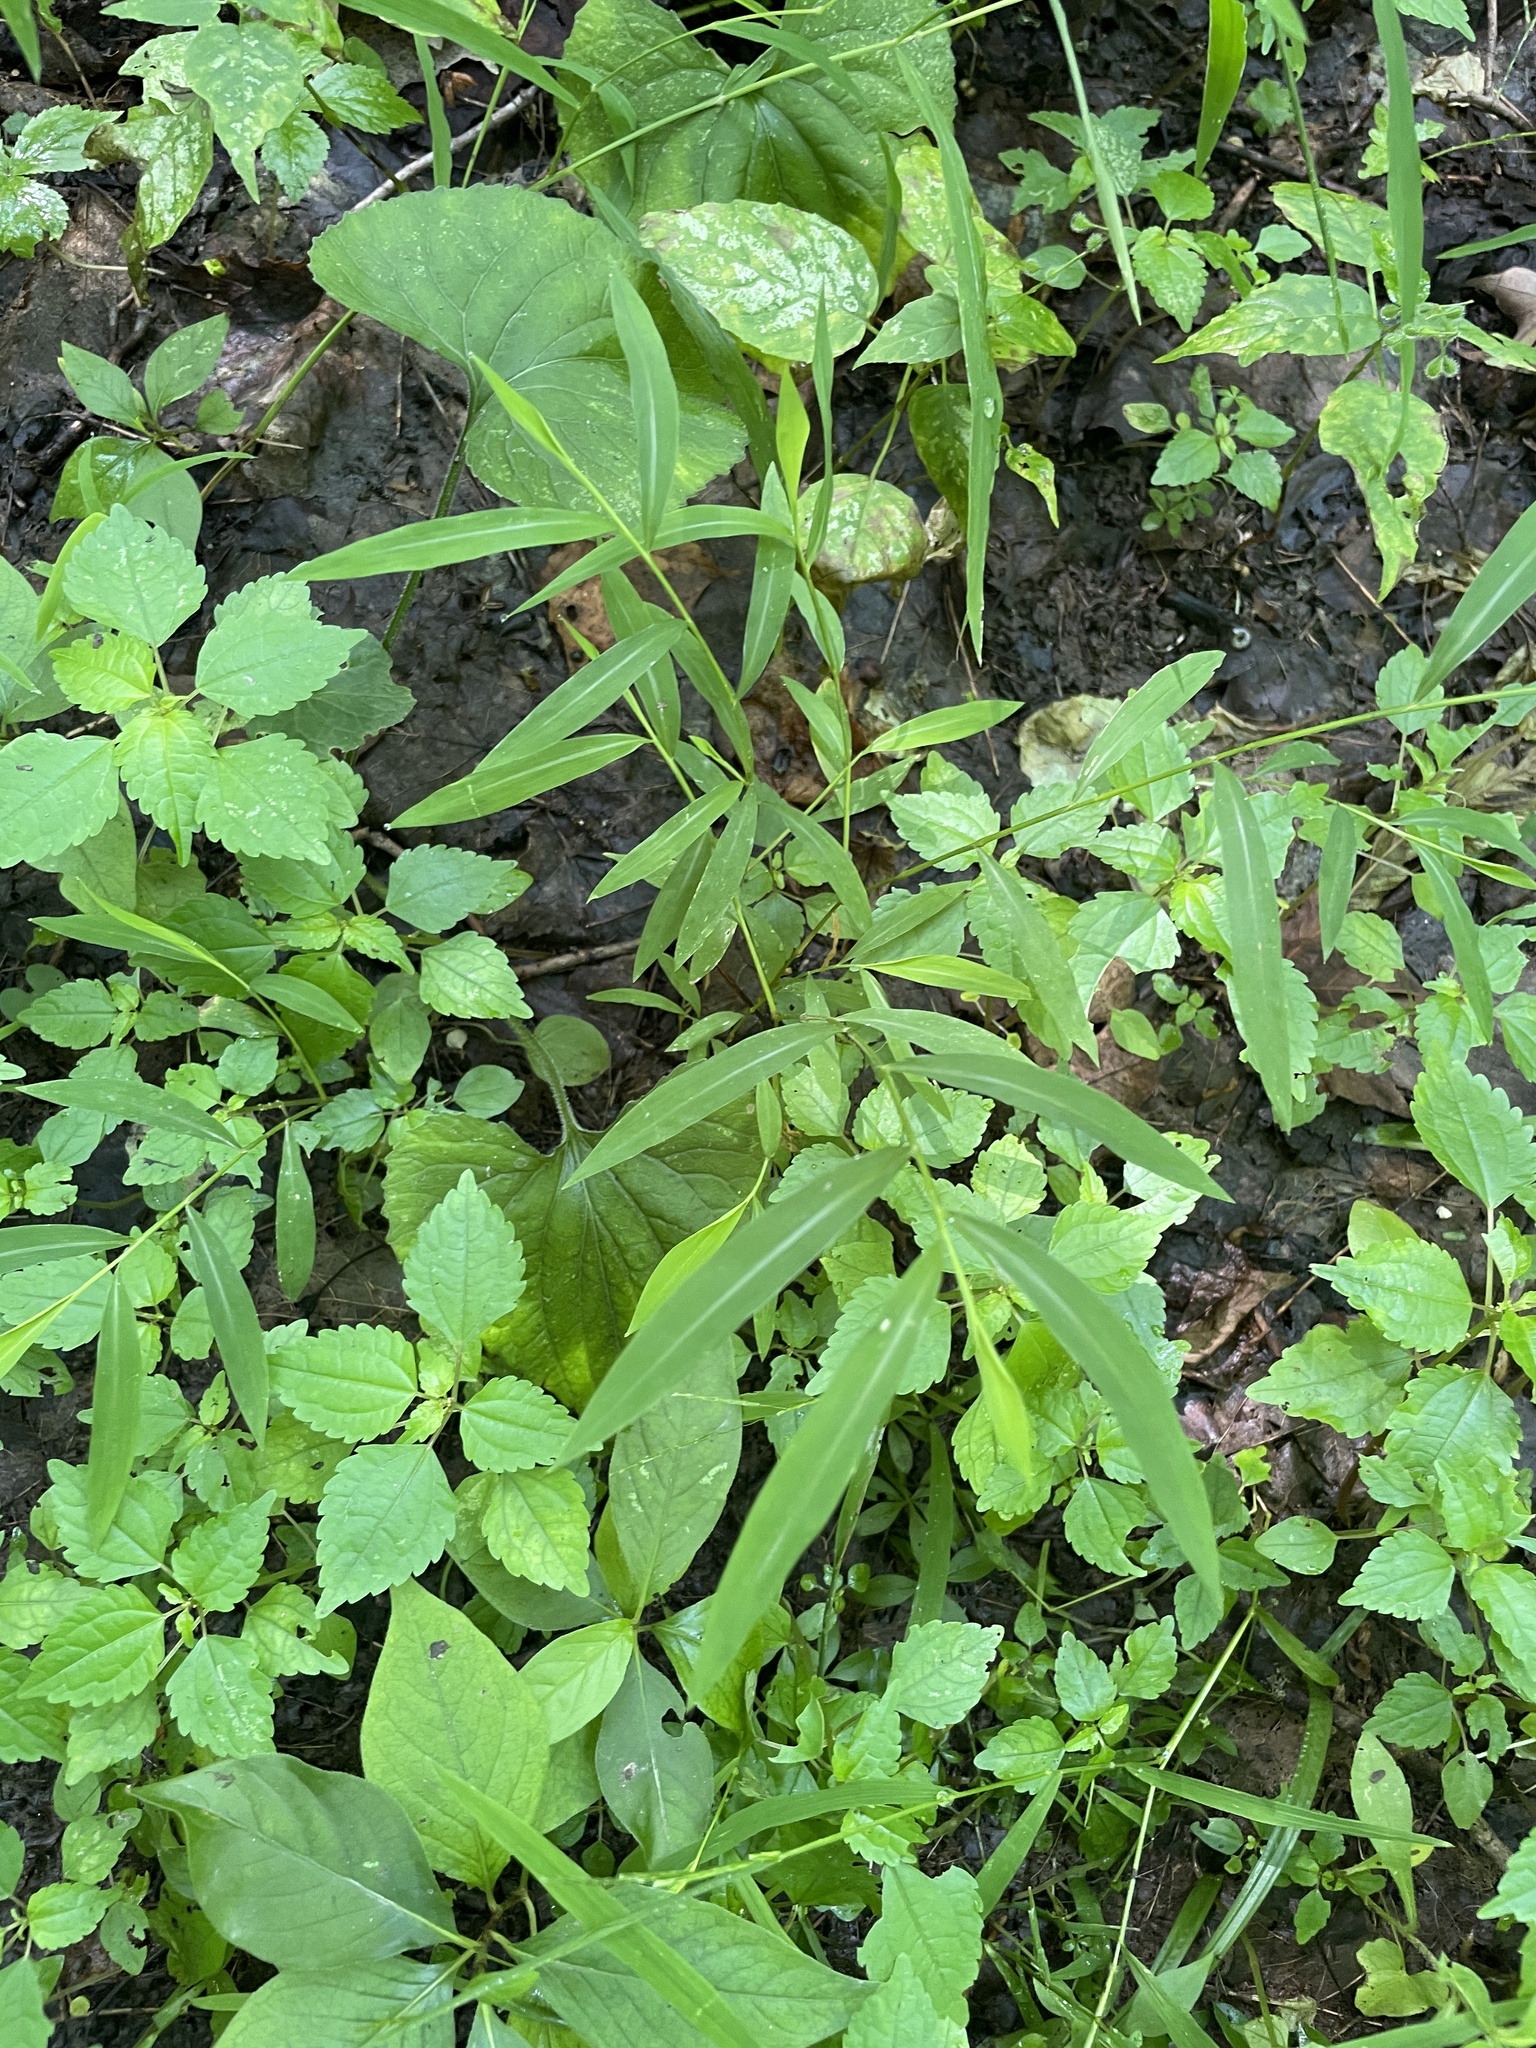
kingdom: Plantae
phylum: Tracheophyta
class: Liliopsida
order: Poales
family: Poaceae
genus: Microstegium
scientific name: Microstegium vimineum
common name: Japanese stiltgrass
